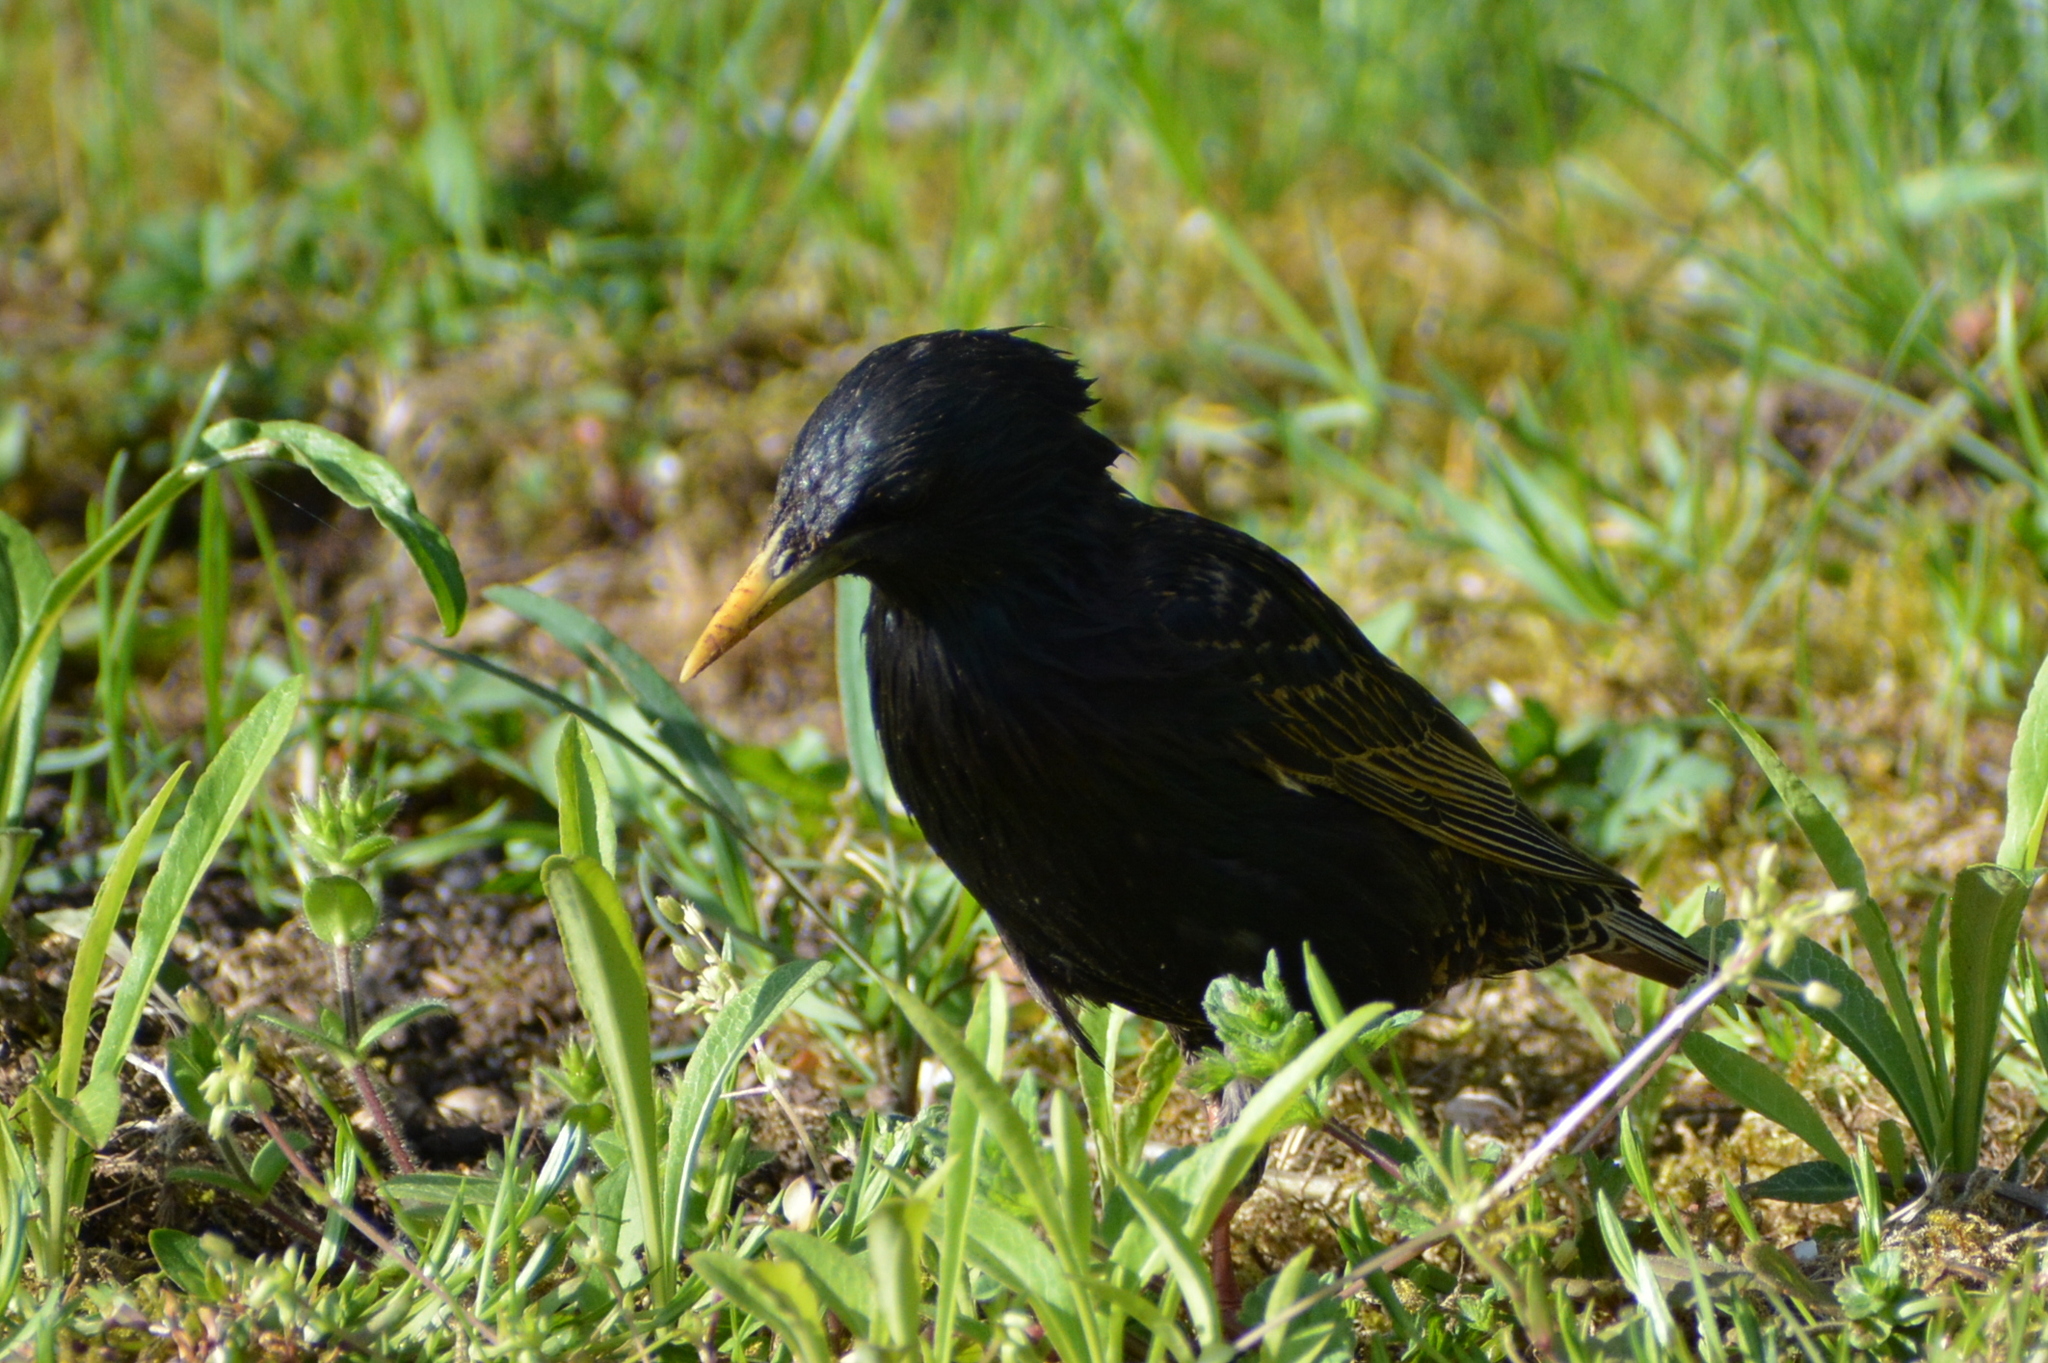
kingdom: Animalia
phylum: Chordata
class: Aves
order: Passeriformes
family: Sturnidae
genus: Sturnus
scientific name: Sturnus vulgaris
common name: Common starling
